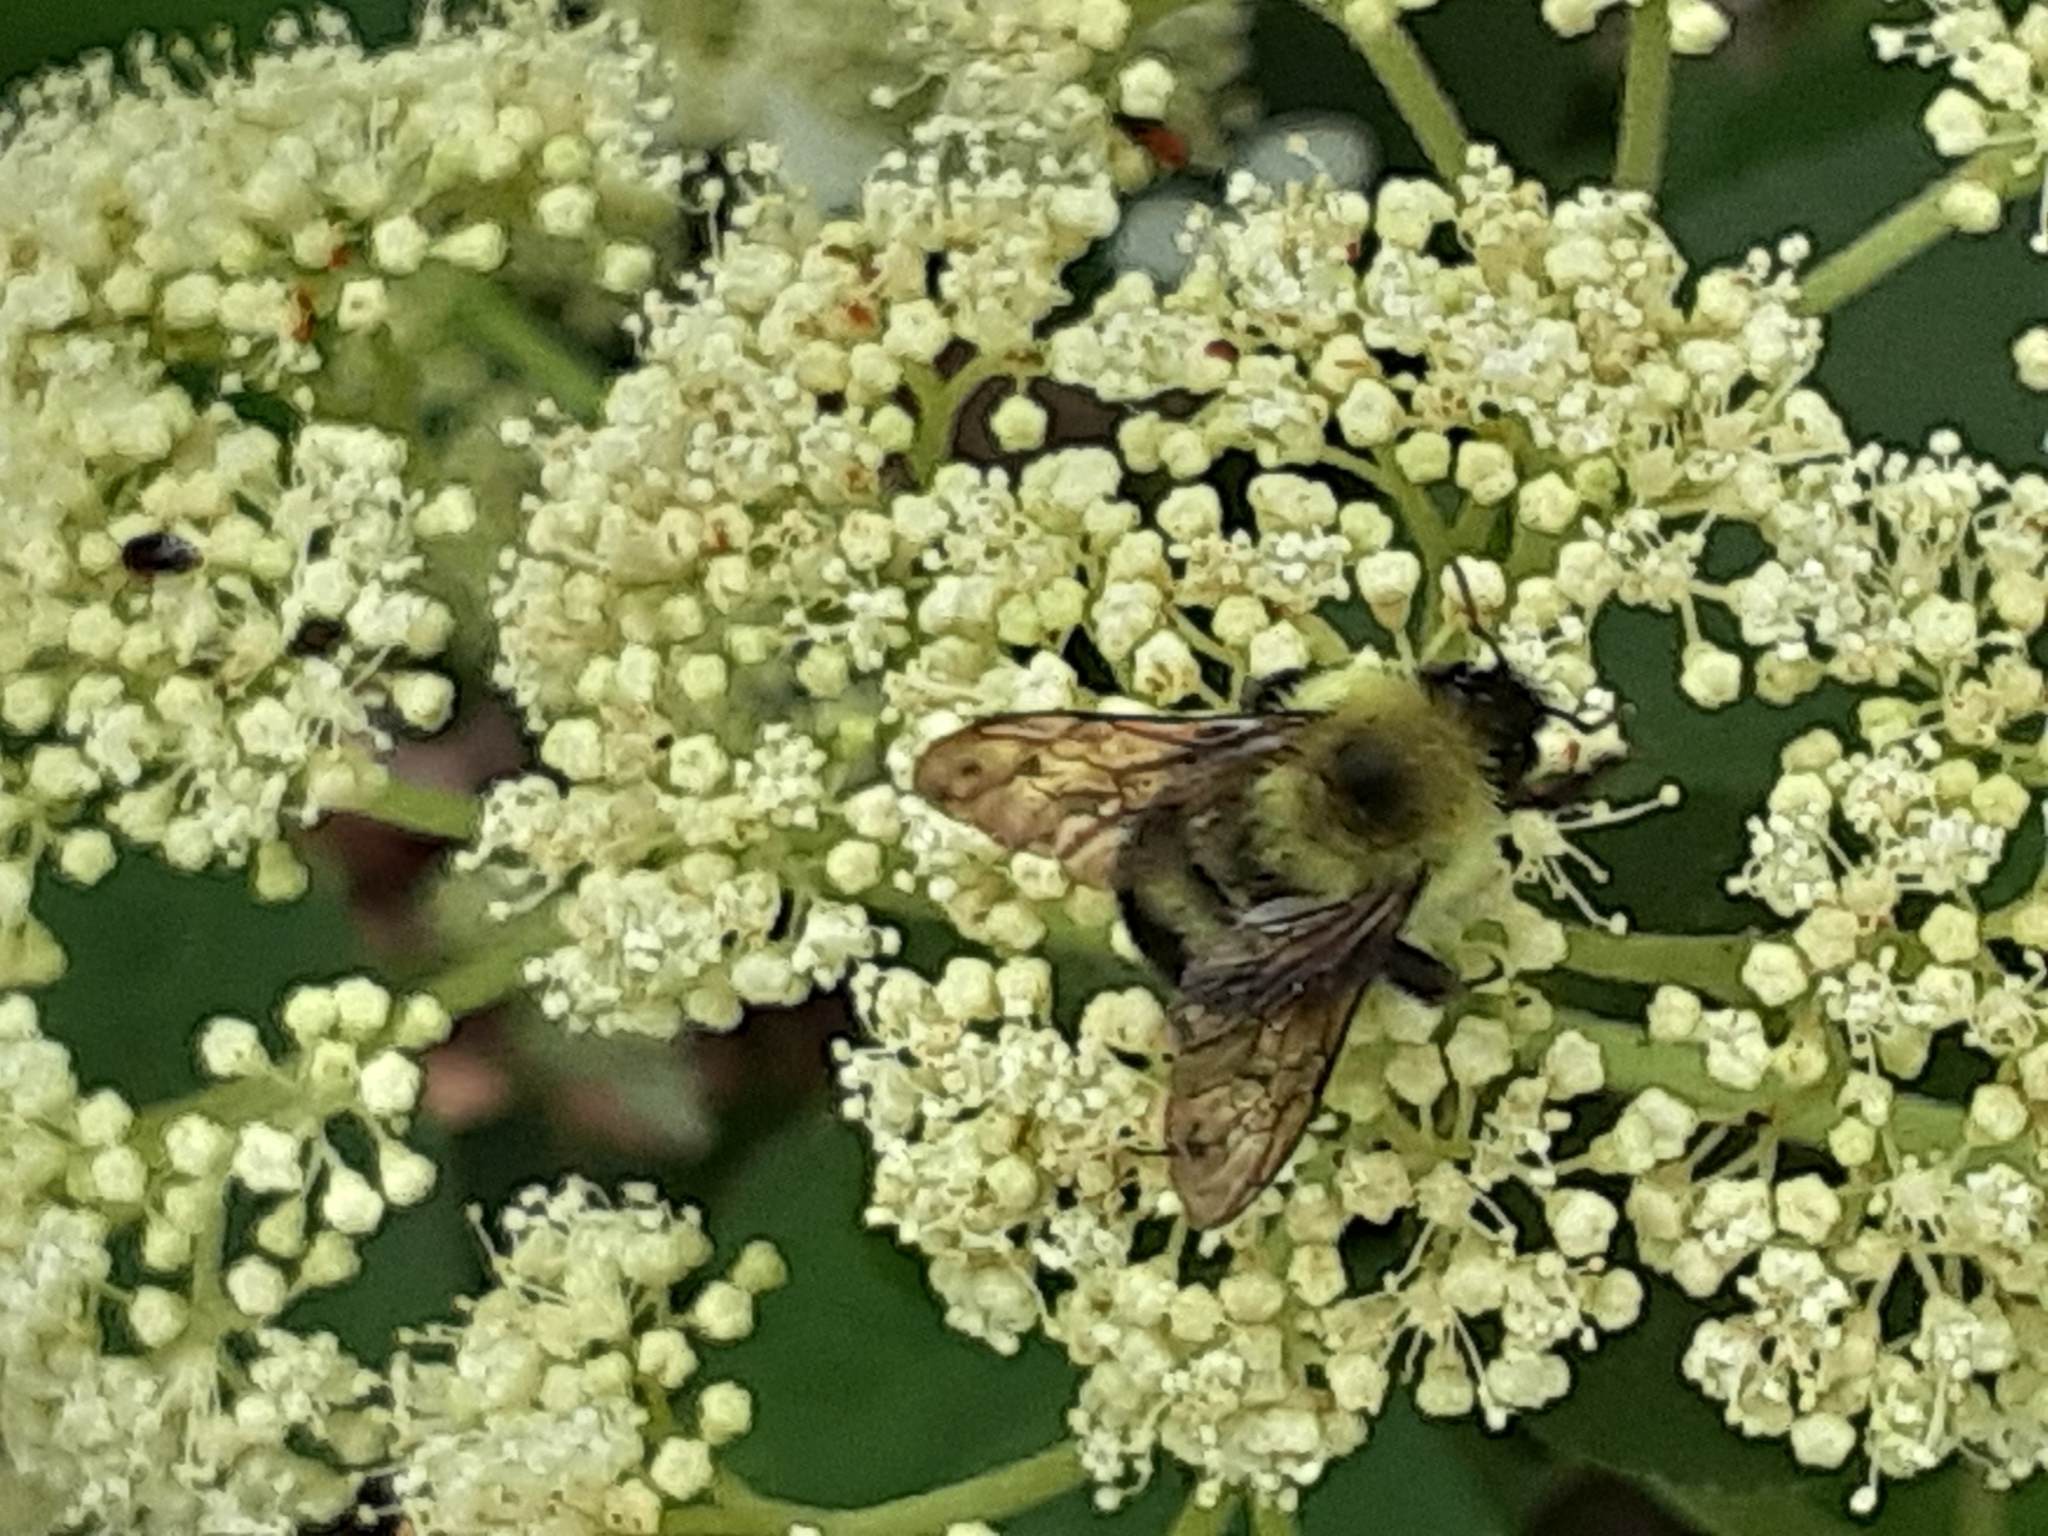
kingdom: Animalia
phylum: Arthropoda
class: Insecta
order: Hymenoptera
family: Apidae
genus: Bombus
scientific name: Bombus bimaculatus
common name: Two-spotted bumble bee
